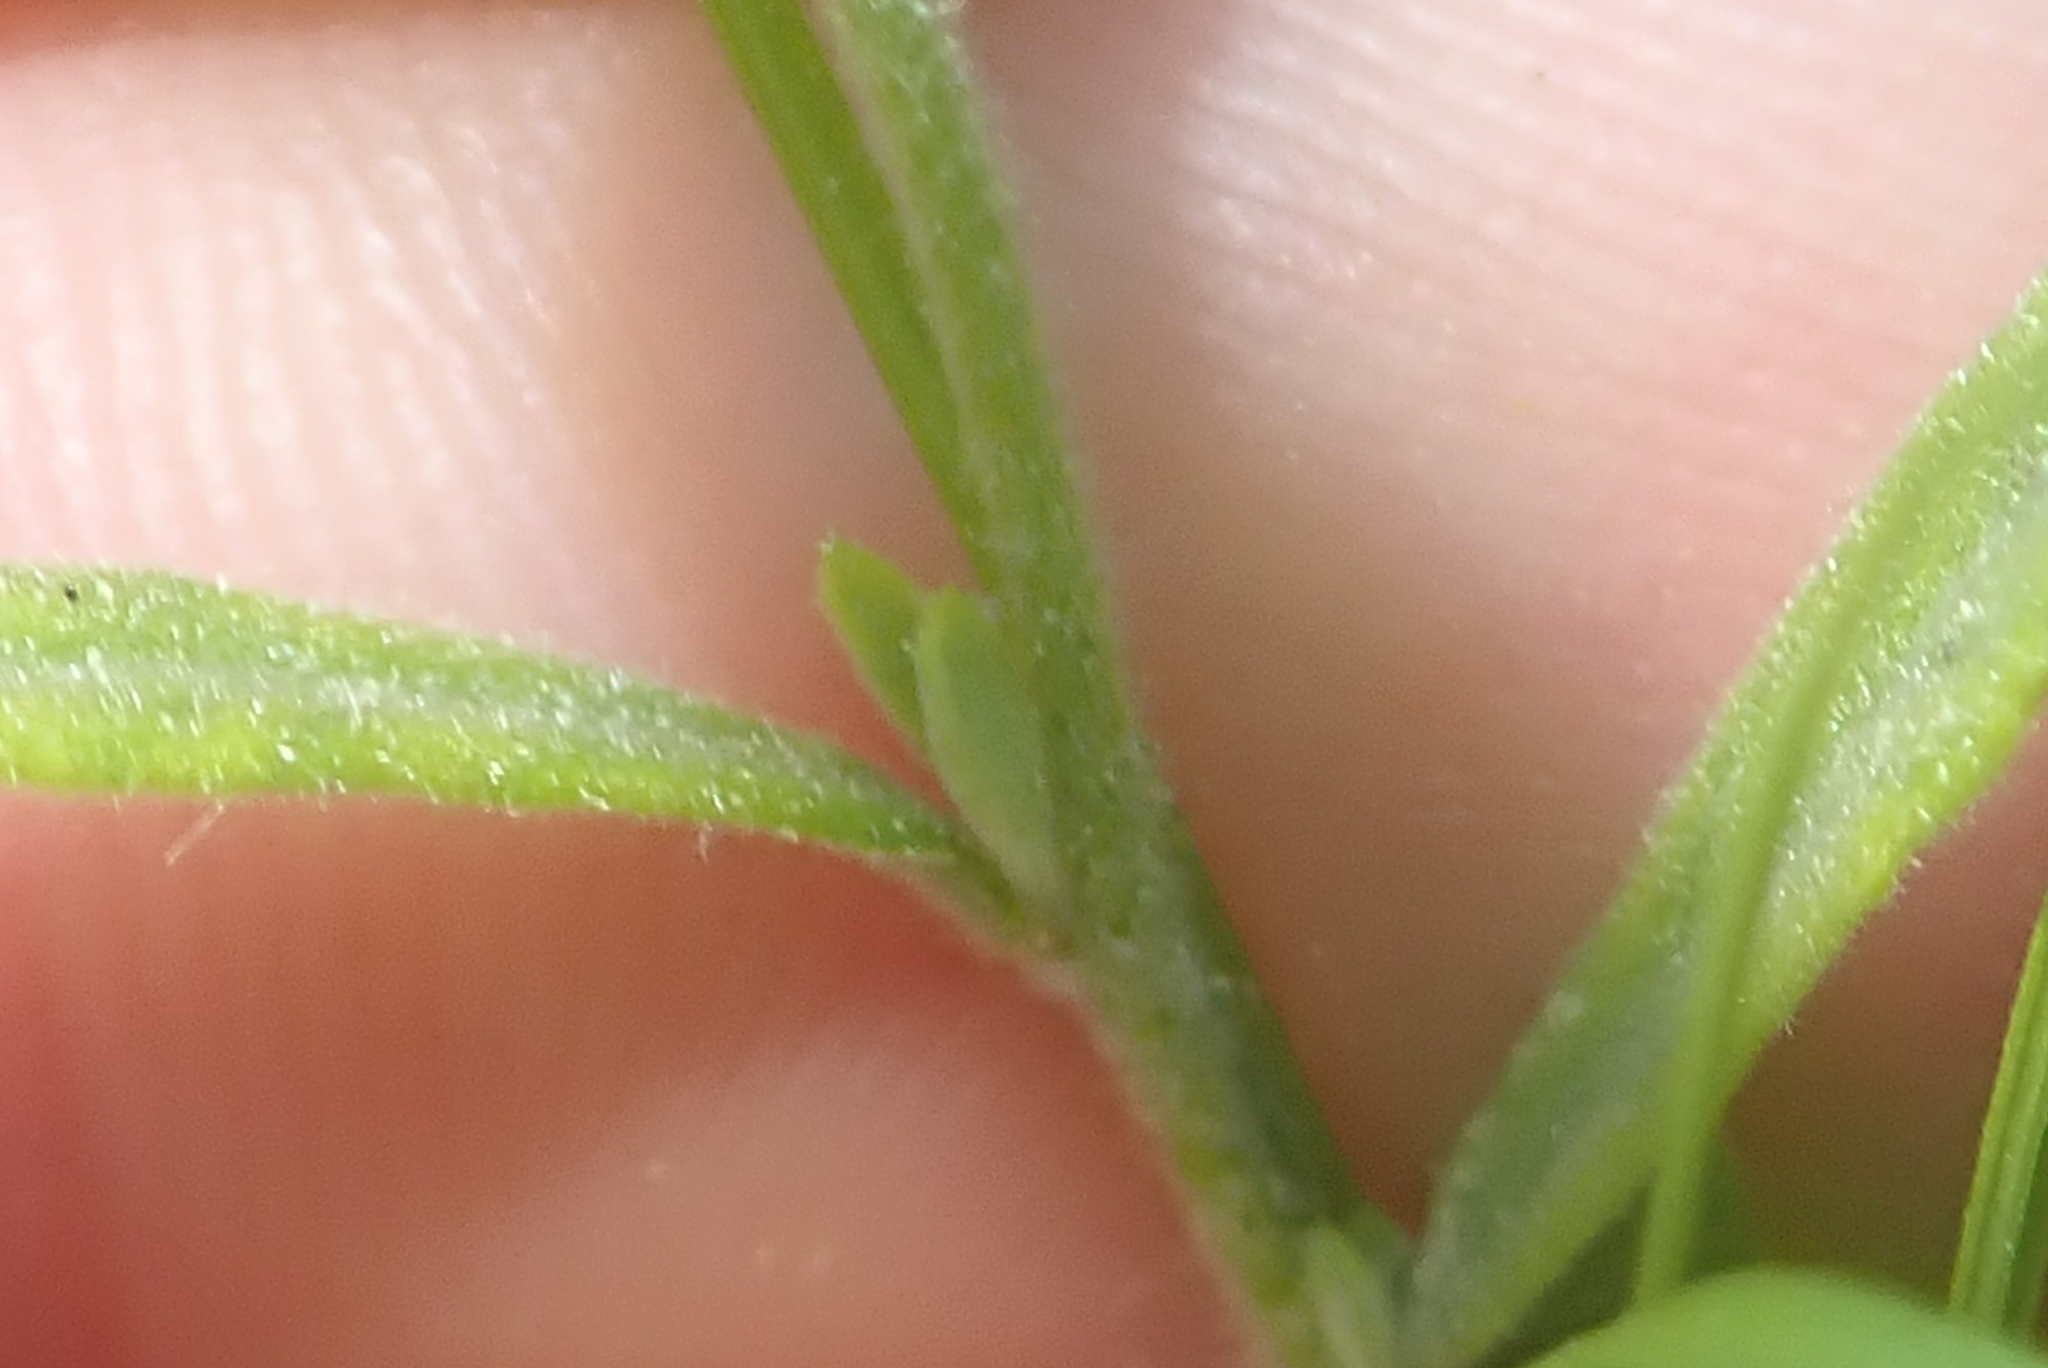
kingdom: Plantae
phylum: Tracheophyta
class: Magnoliopsida
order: Malvales
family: Cistaceae
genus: Crocanthemum
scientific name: Crocanthemum canadense
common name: Canada frostweed
